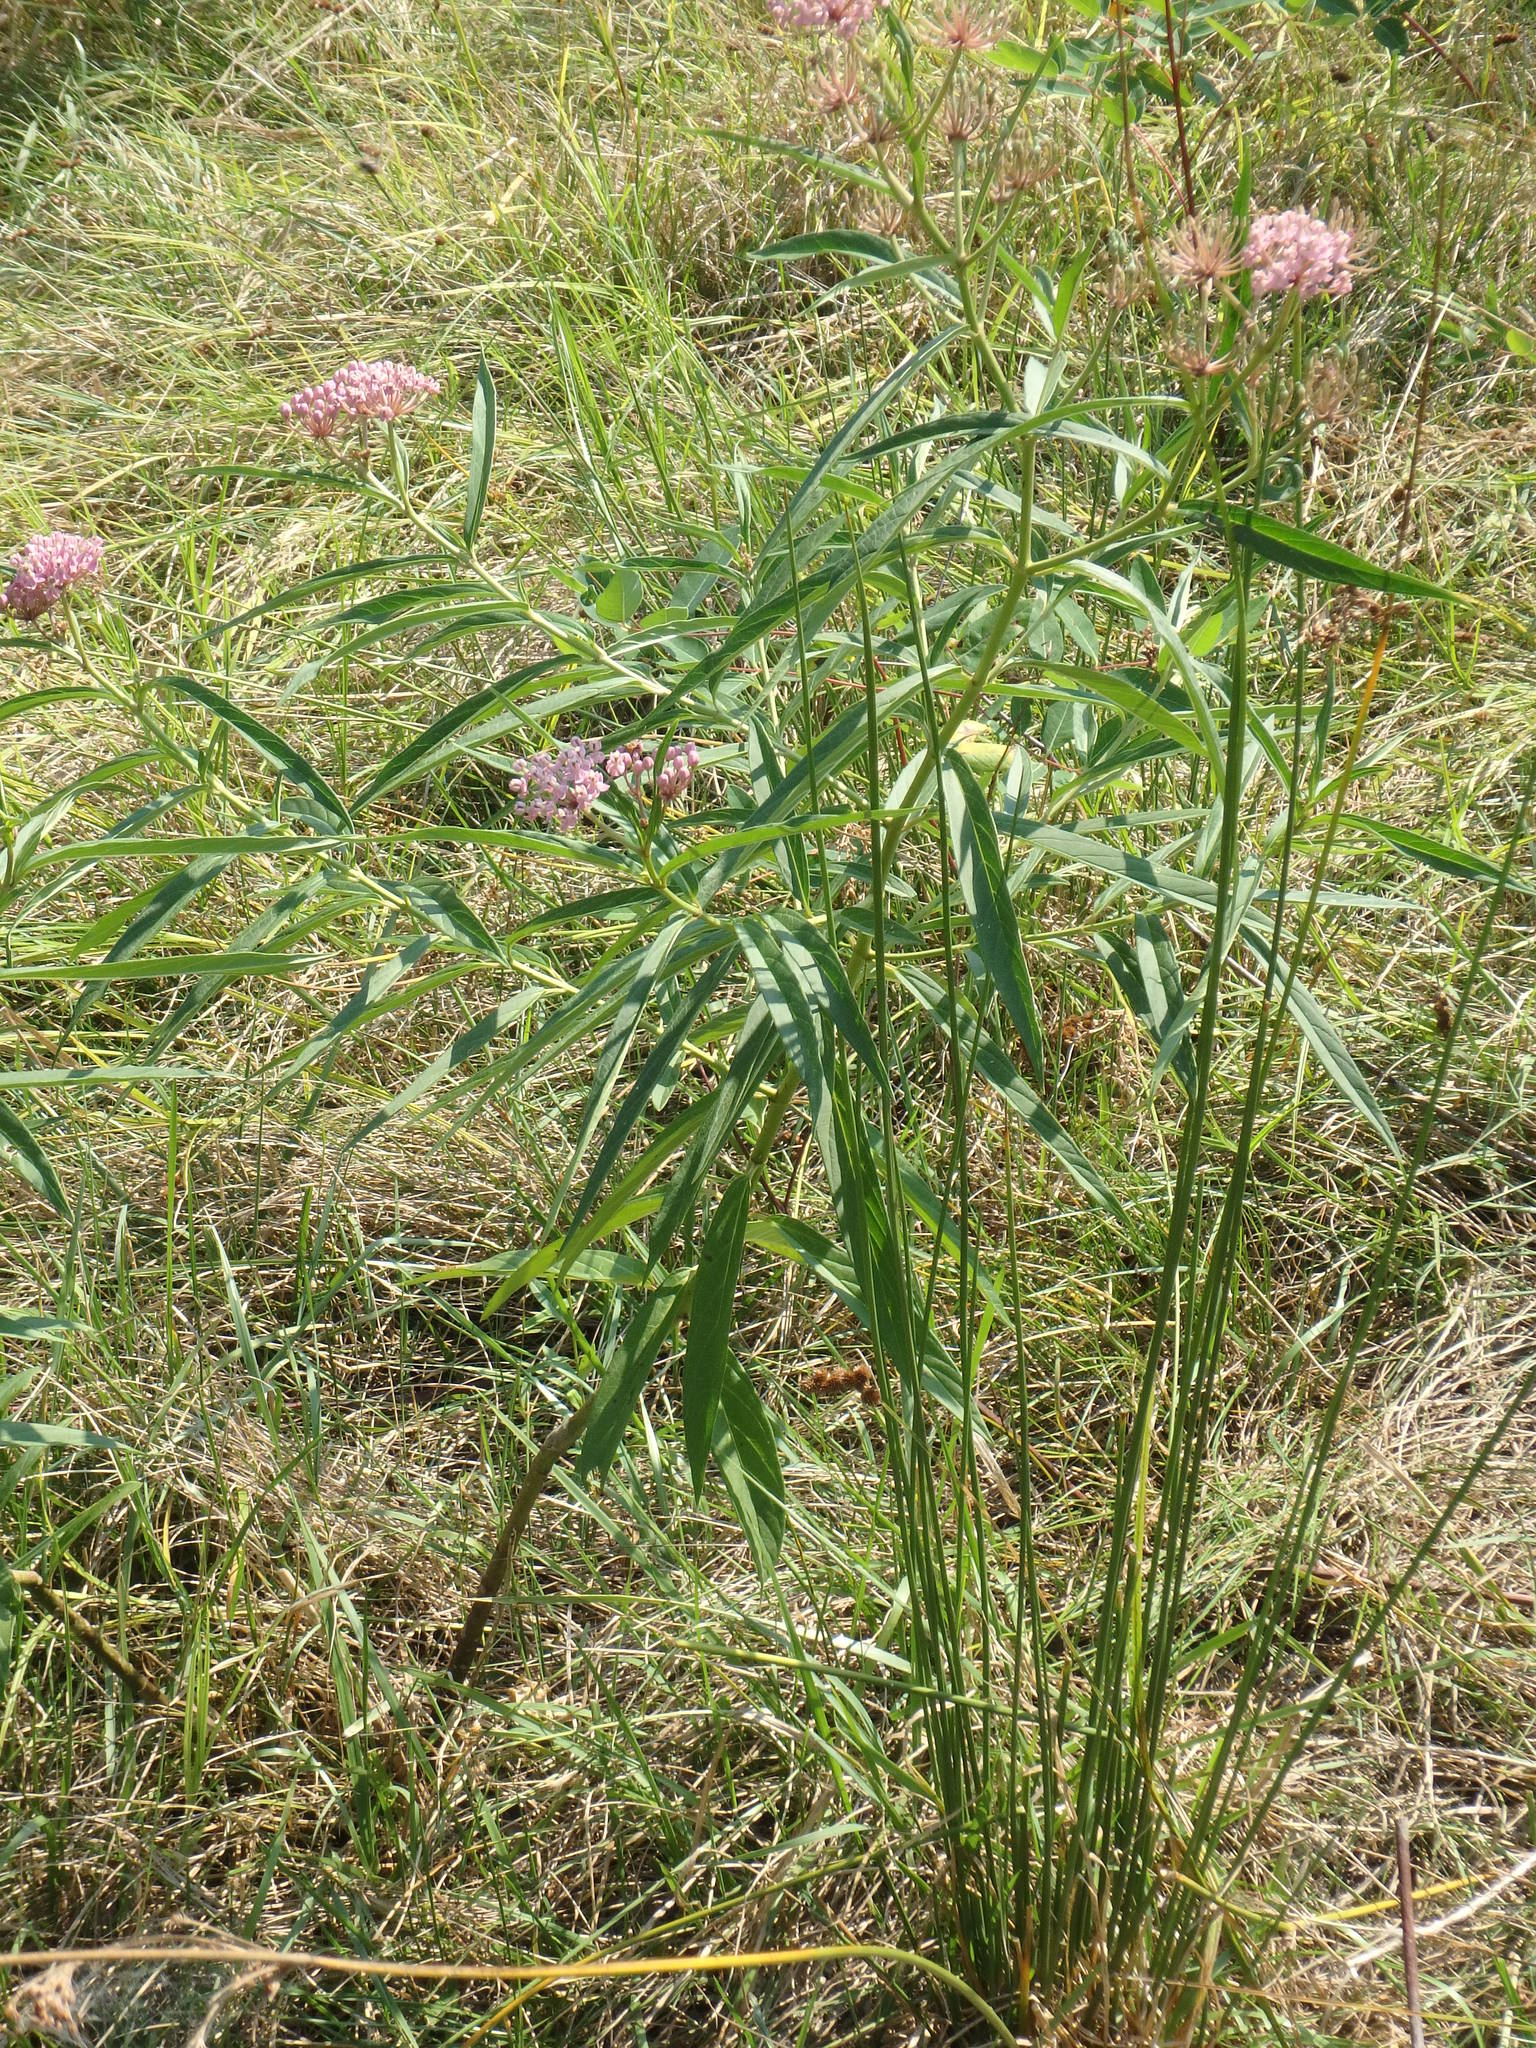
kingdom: Plantae
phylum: Tracheophyta
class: Magnoliopsida
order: Gentianales
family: Apocynaceae
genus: Asclepias
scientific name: Asclepias incarnata
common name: Swamp milkweed
